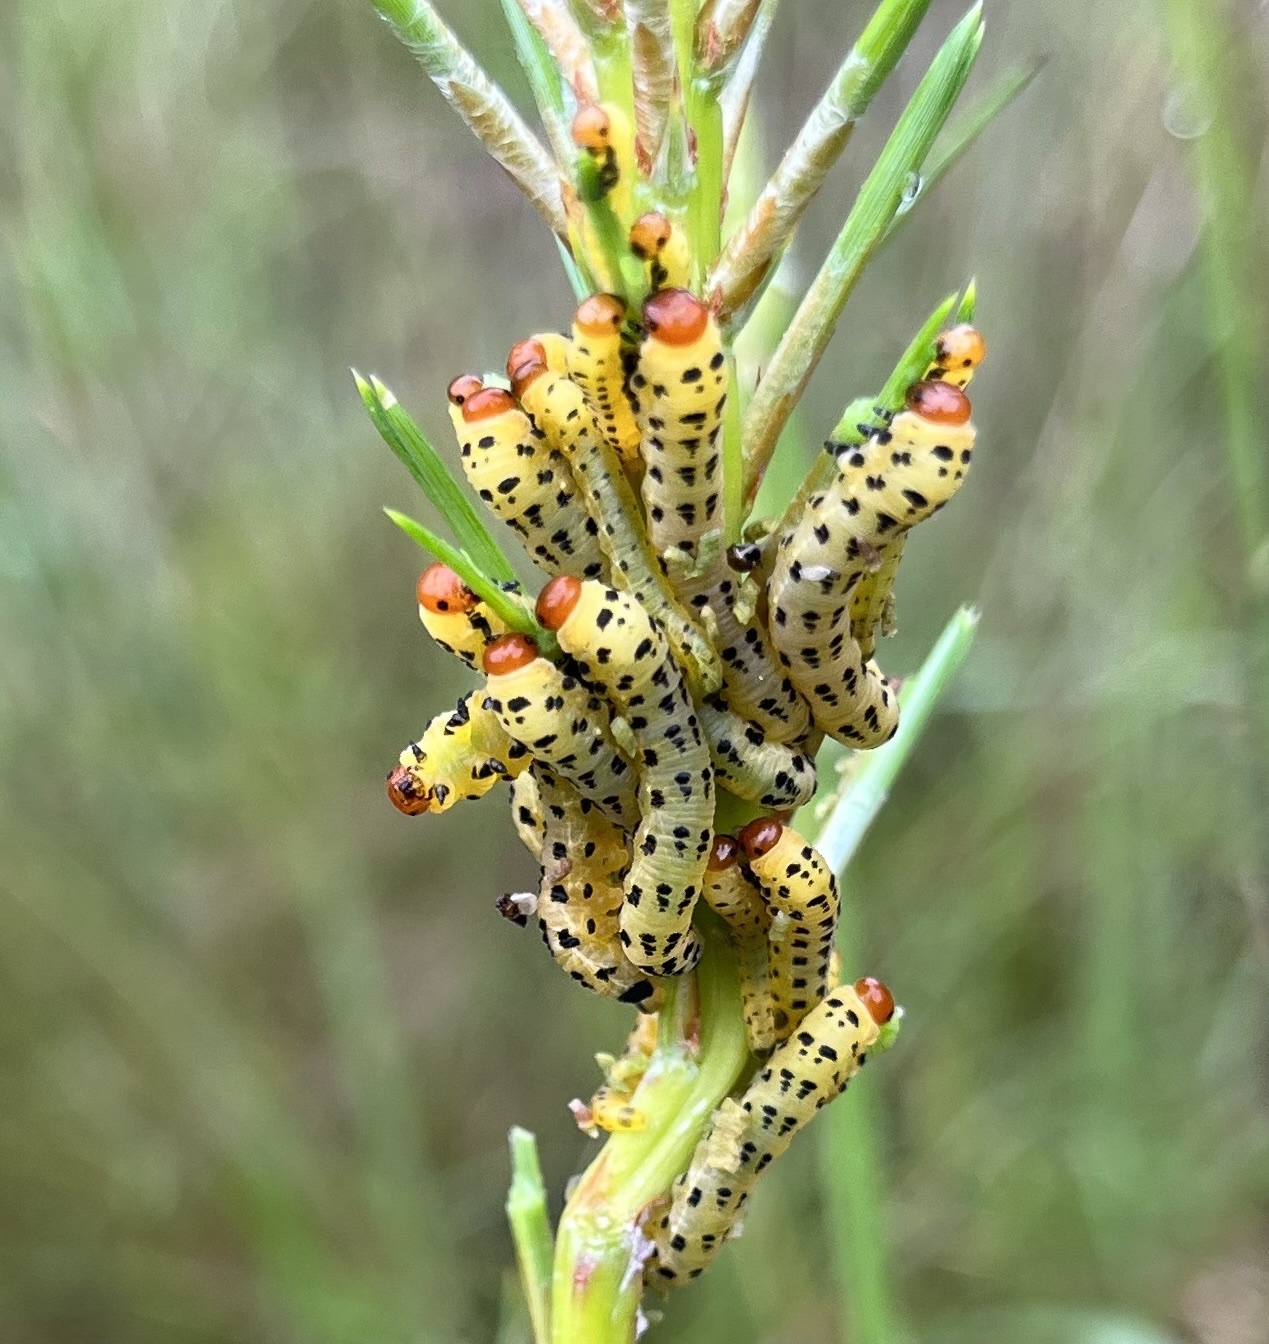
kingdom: Animalia
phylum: Arthropoda
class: Insecta
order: Hymenoptera
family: Diprionidae
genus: Neodiprion
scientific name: Neodiprion lecontei
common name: Redheaded pine sawfly
